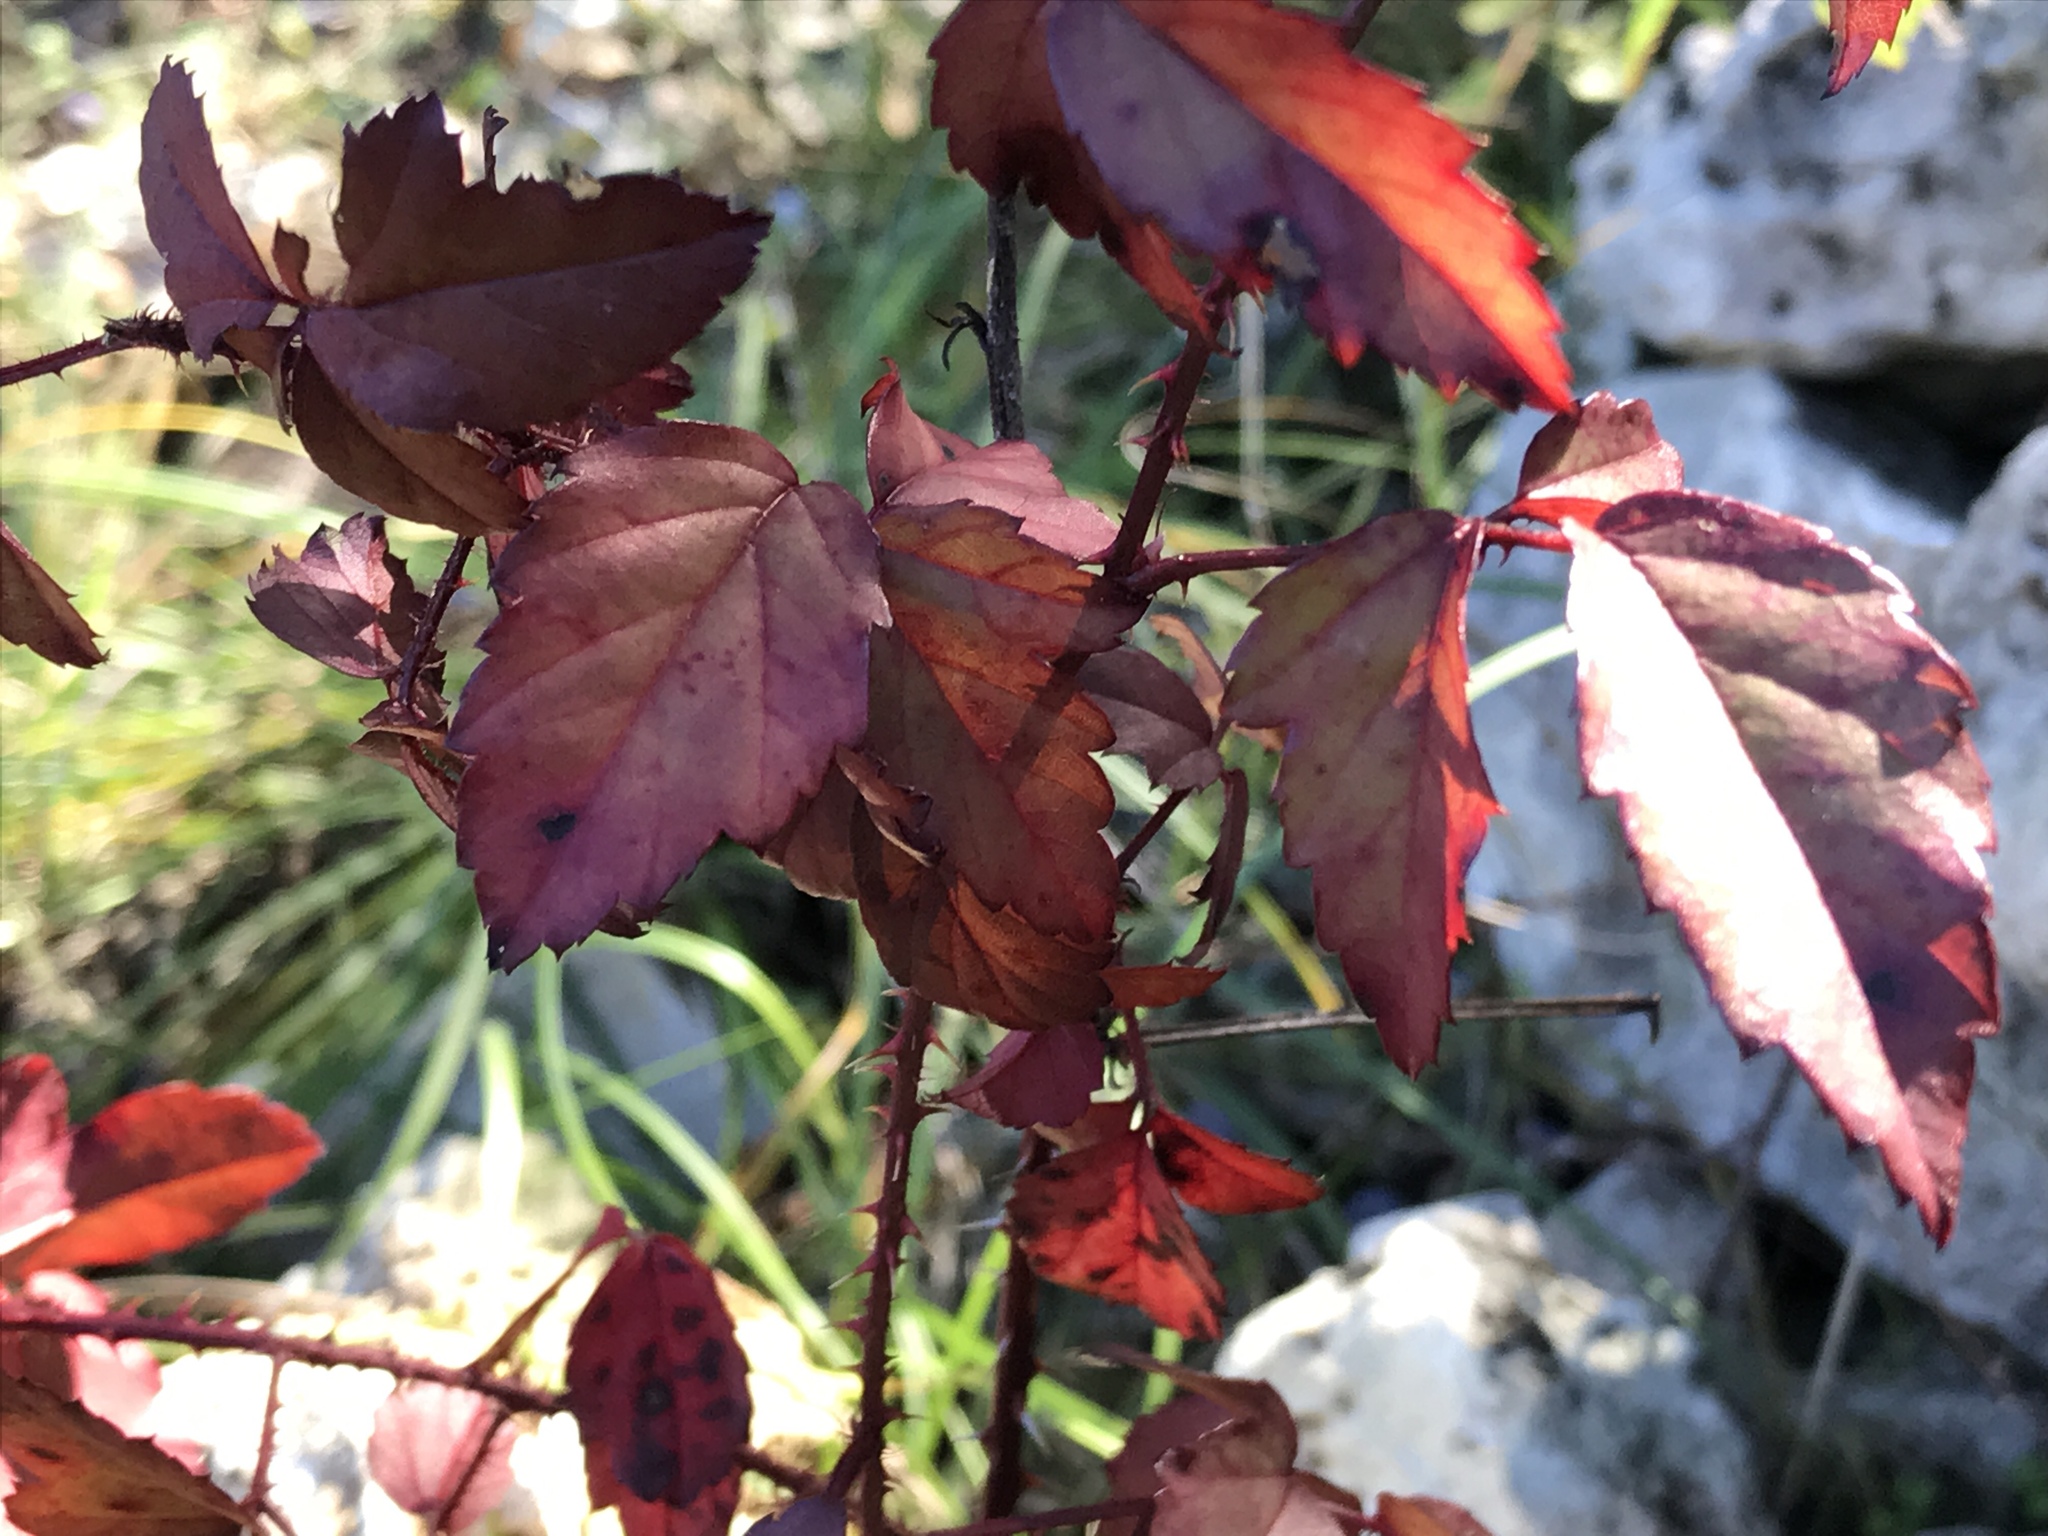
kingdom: Plantae
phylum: Tracheophyta
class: Magnoliopsida
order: Rosales
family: Rosaceae
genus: Rubus
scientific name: Rubus trivialis
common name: Southern dewberry
